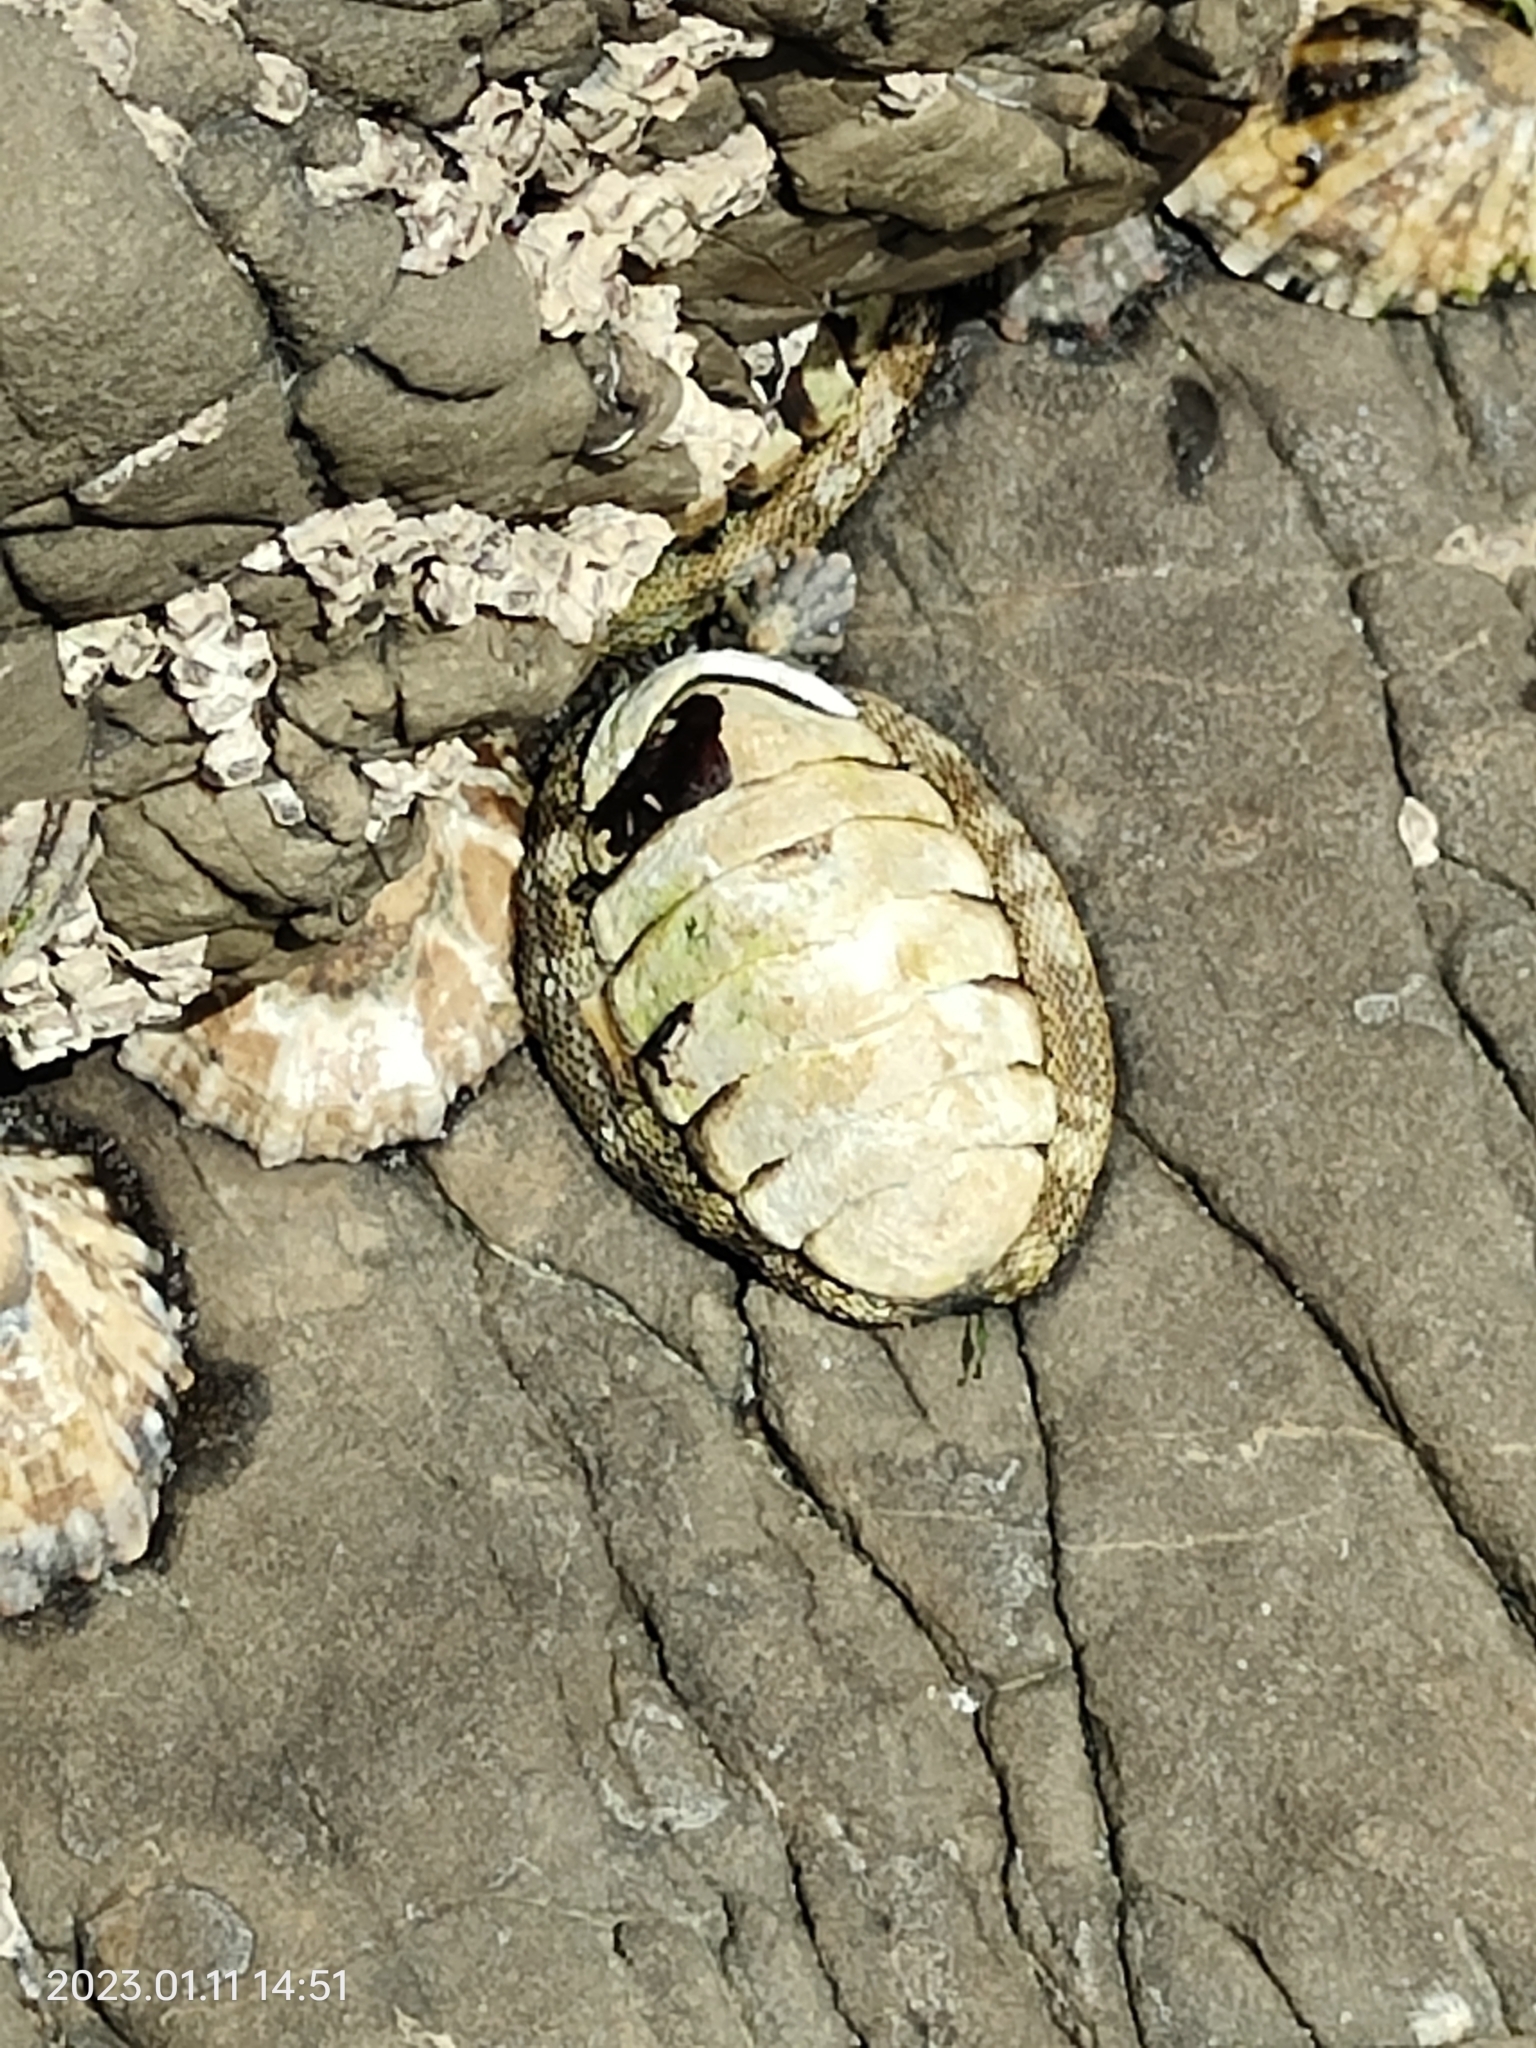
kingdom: Animalia
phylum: Mollusca
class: Polyplacophora
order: Chitonida
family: Chitonidae
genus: Sypharochiton
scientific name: Sypharochiton pelliserpentis
